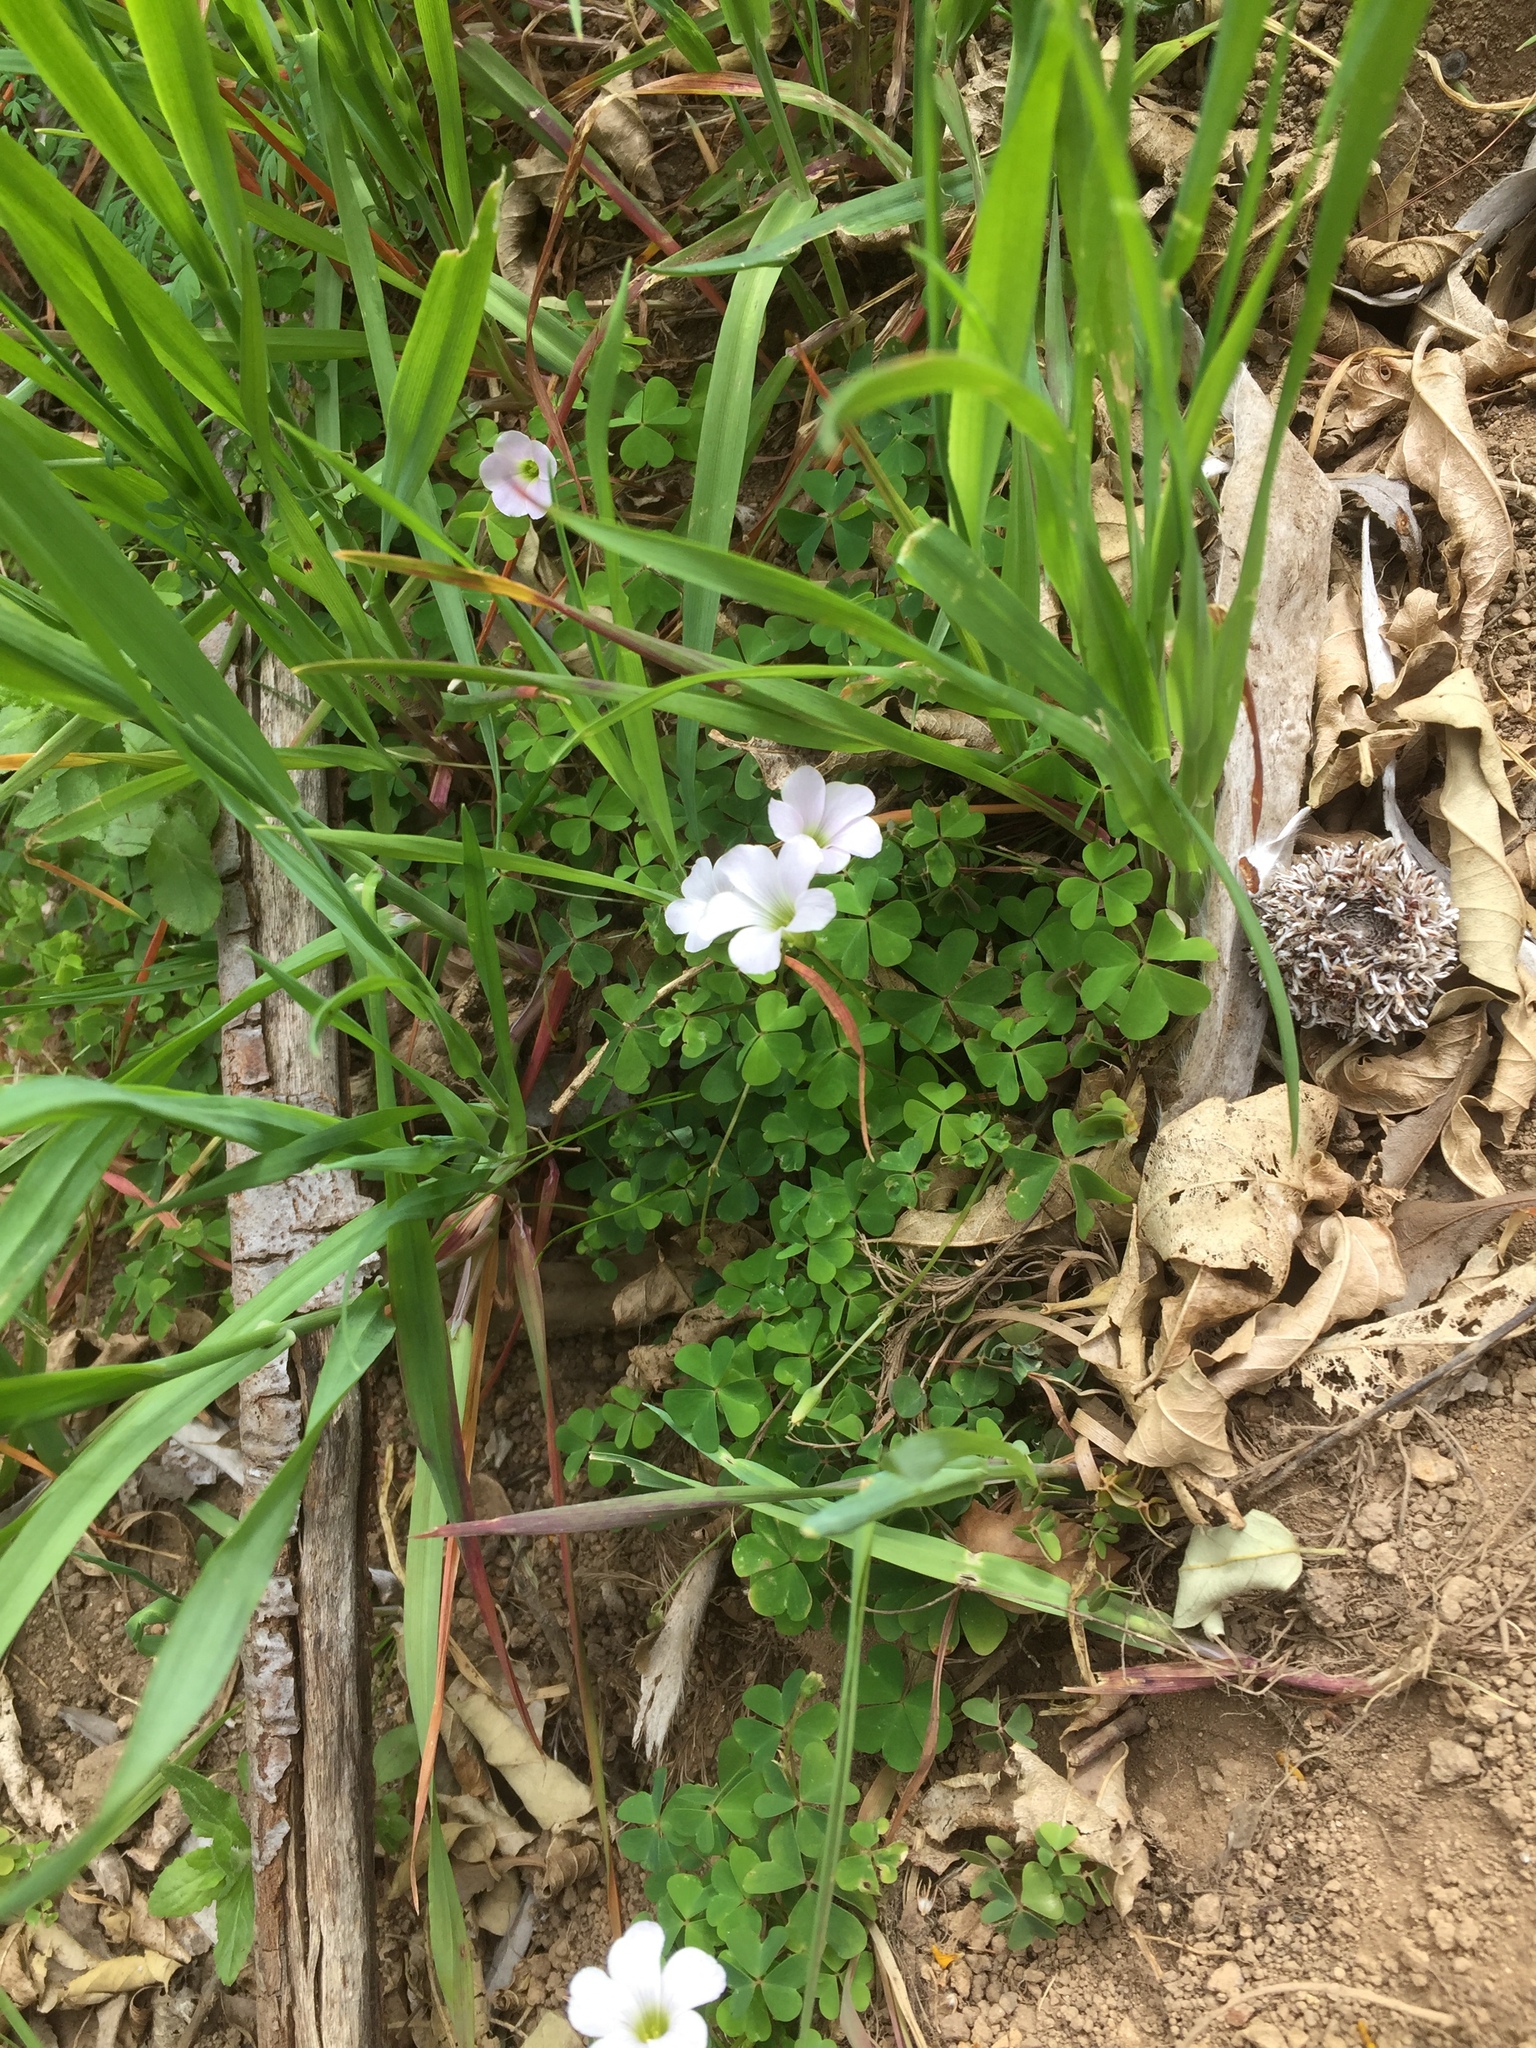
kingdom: Plantae
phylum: Tracheophyta
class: Magnoliopsida
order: Oxalidales
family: Oxalidaceae
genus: Oxalis
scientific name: Oxalis incarnata
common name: Pale pink-sorrel
